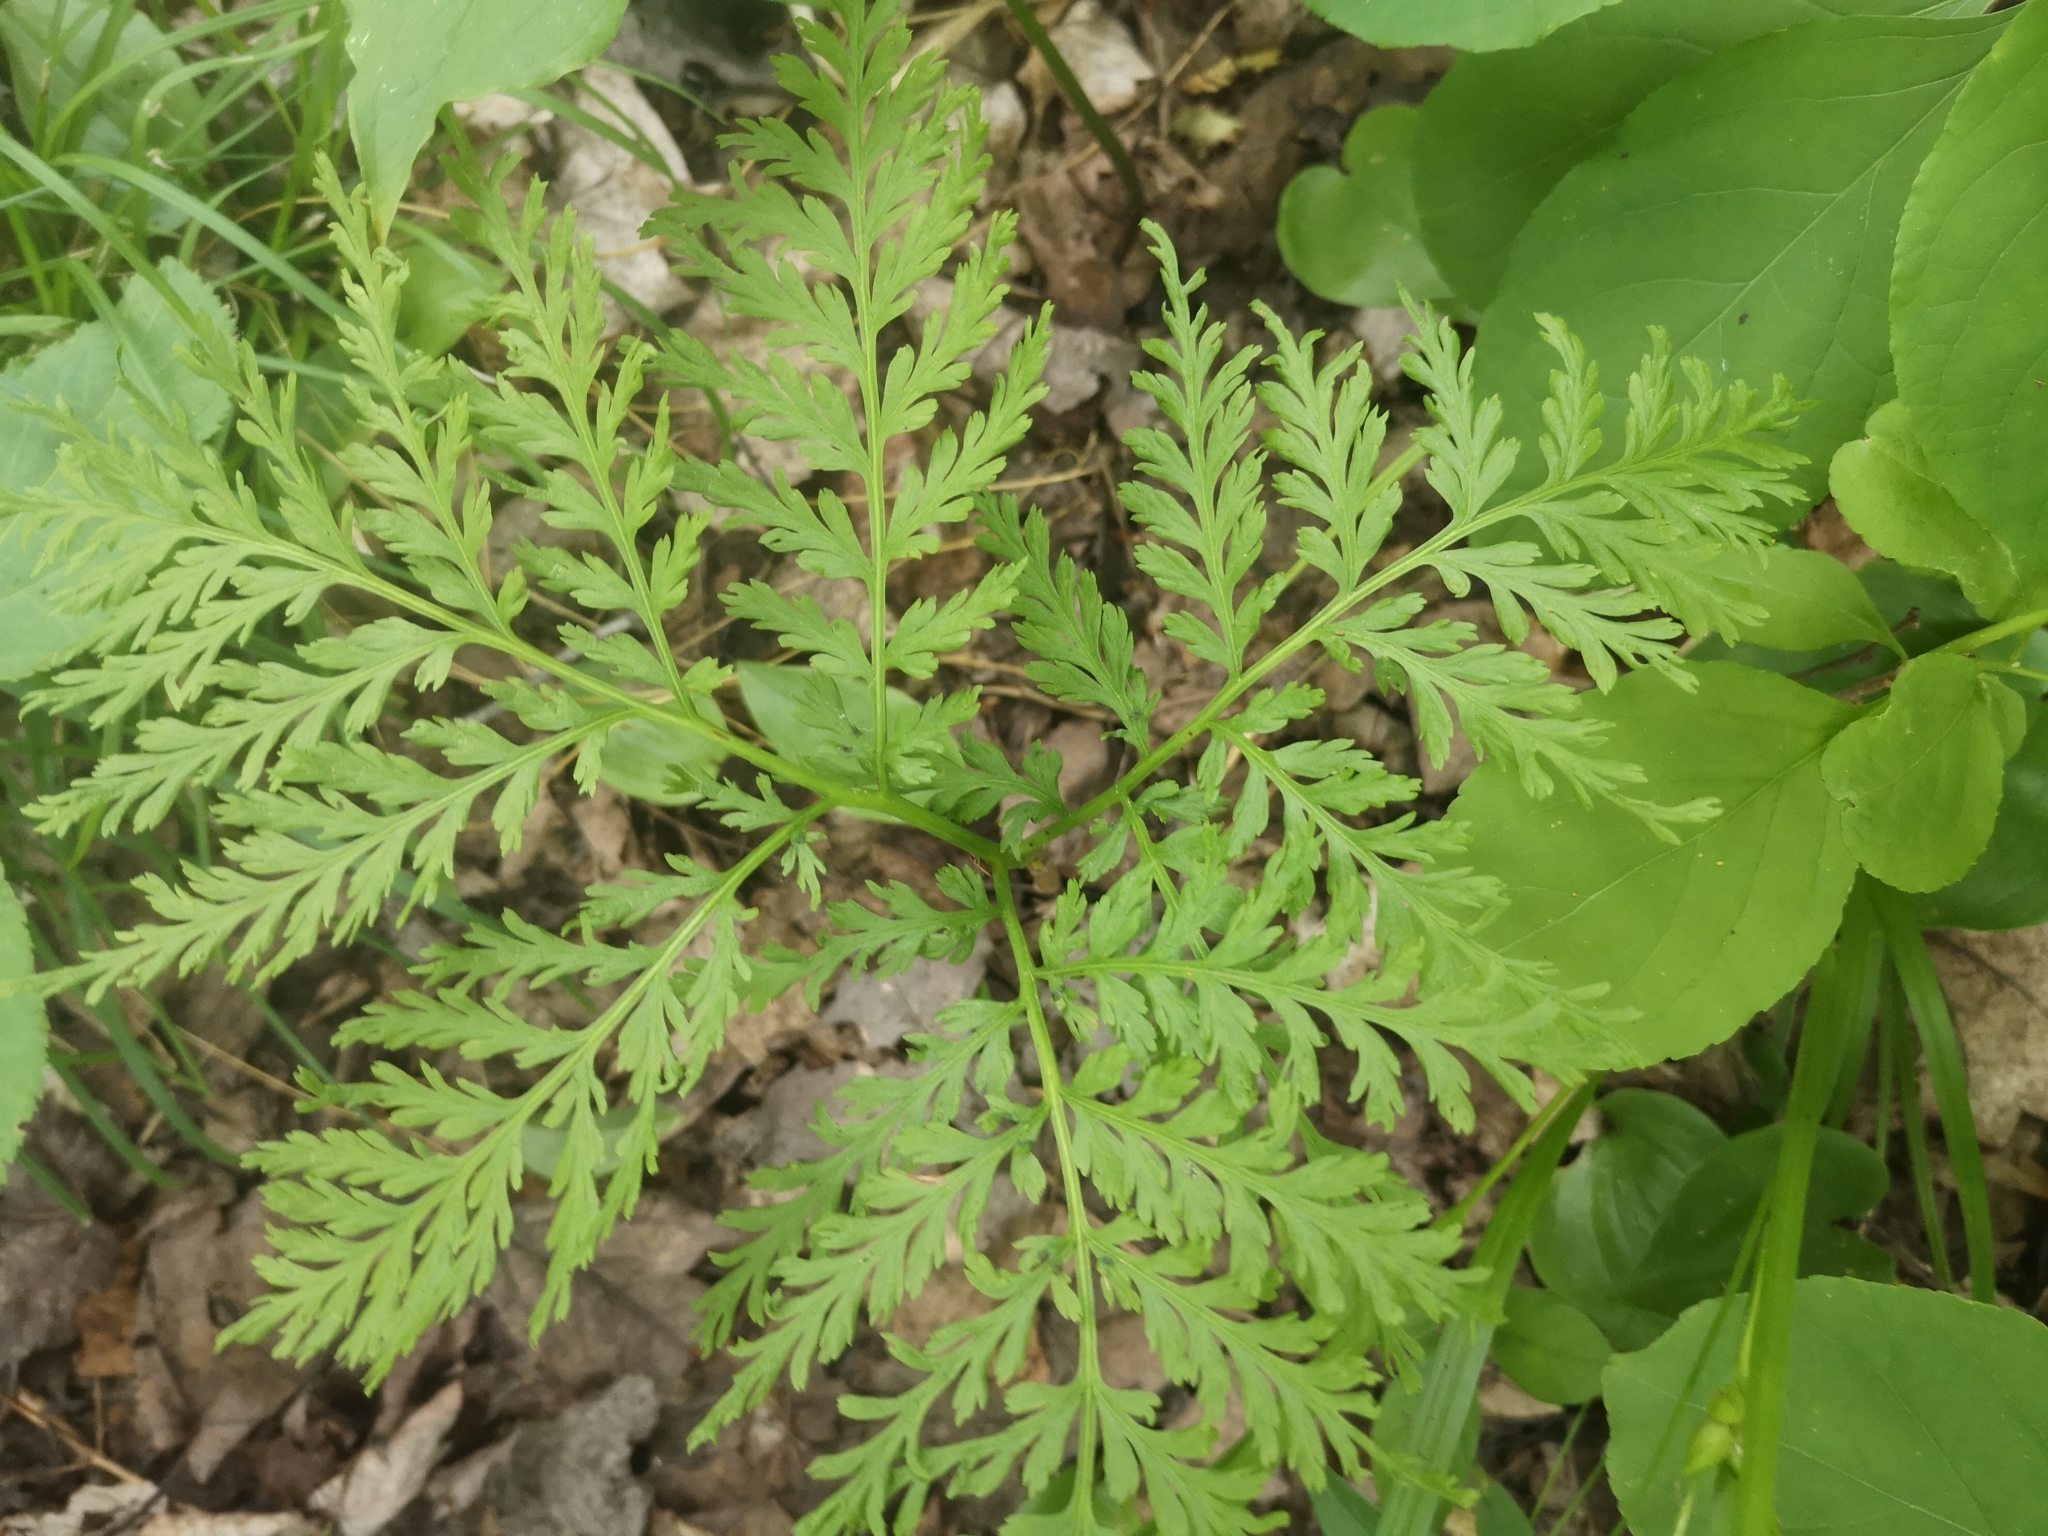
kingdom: Plantae
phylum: Tracheophyta
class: Polypodiopsida
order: Ophioglossales
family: Ophioglossaceae
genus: Botrypus
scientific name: Botrypus virginianus
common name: Common grapefern
